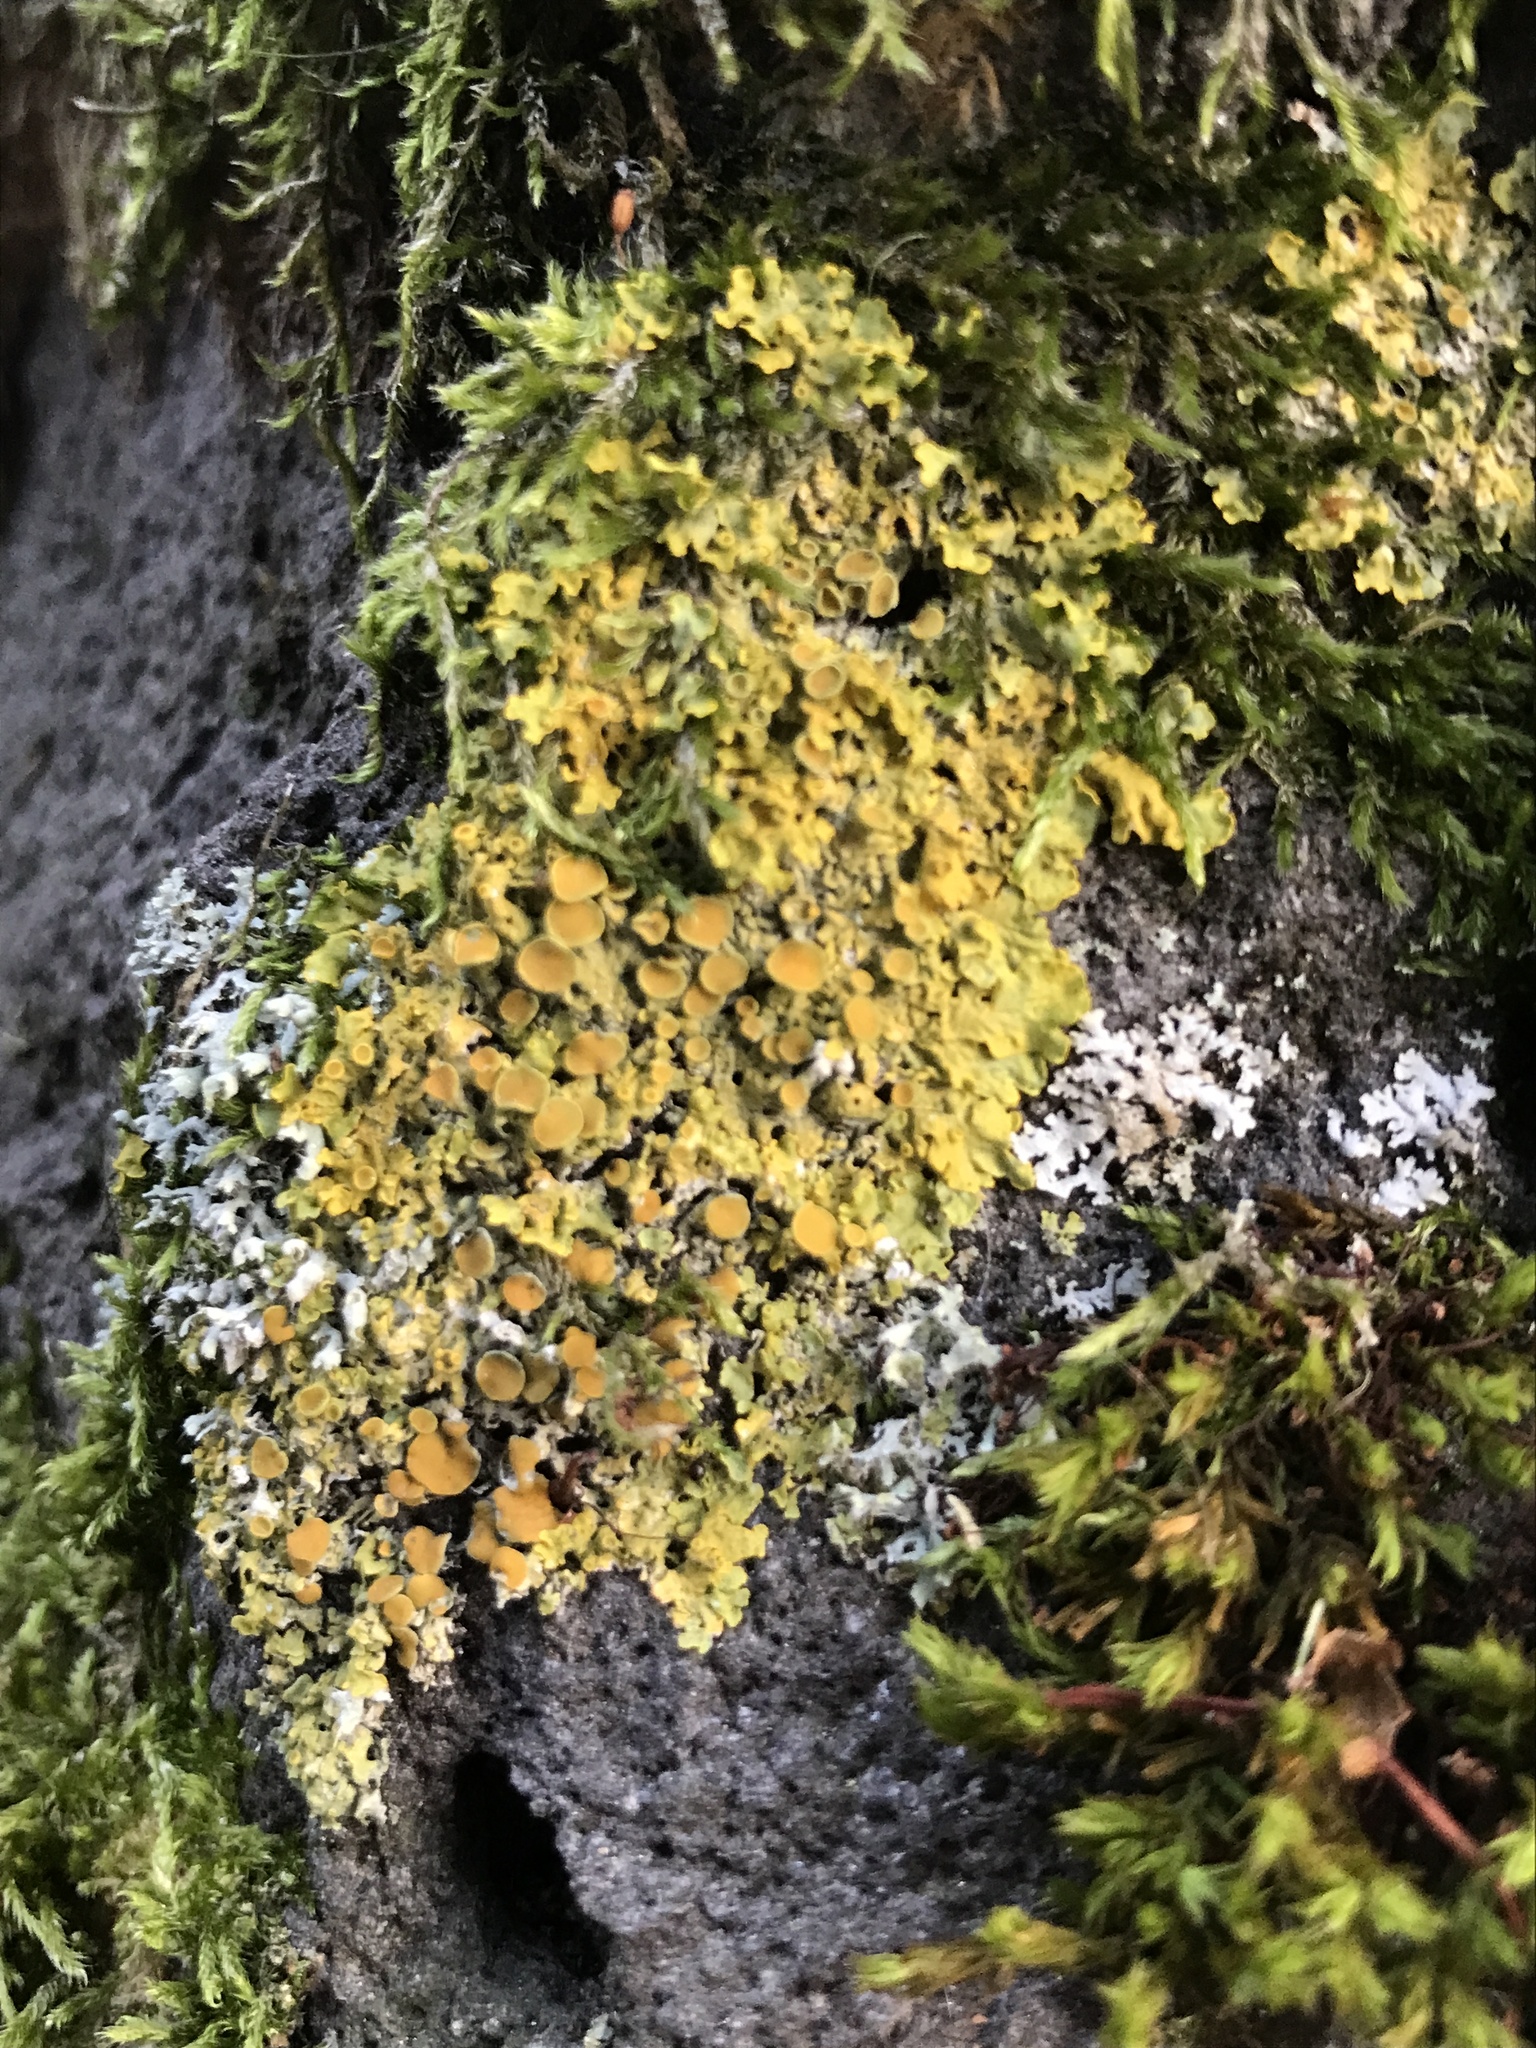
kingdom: Fungi
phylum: Ascomycota
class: Lecanoromycetes
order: Teloschistales
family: Teloschistaceae
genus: Xanthoria
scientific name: Xanthoria parietina
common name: Common orange lichen
